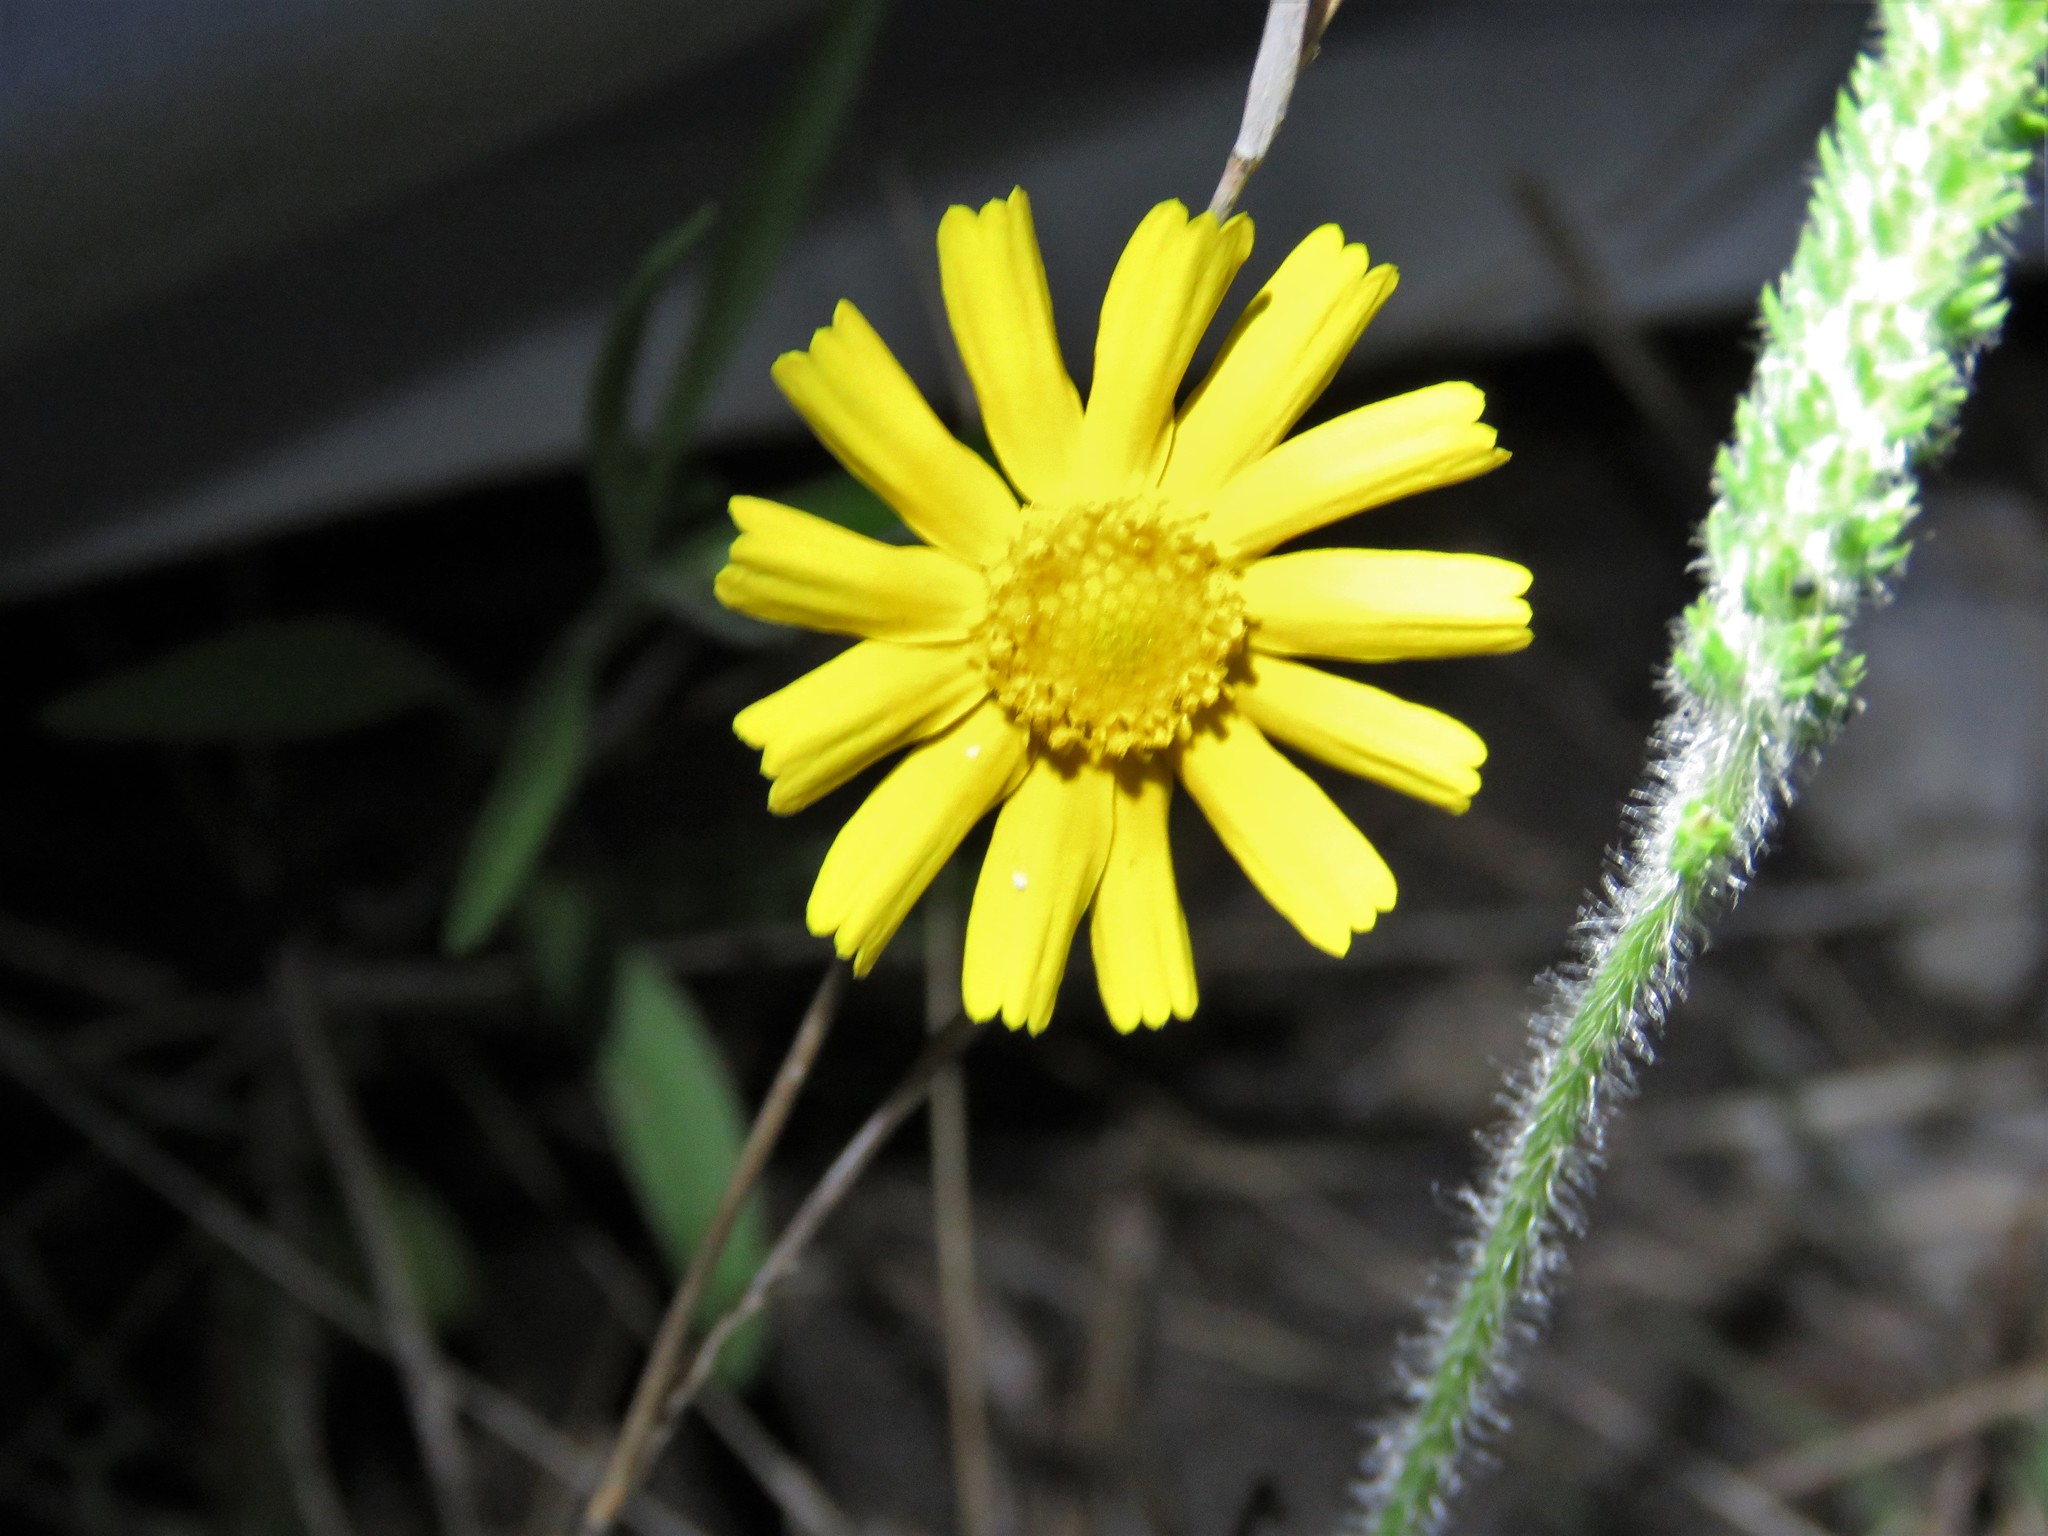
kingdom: Plantae
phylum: Tracheophyta
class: Magnoliopsida
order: Asterales
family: Asteraceae
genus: Tetraneuris
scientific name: Tetraneuris scaposa
